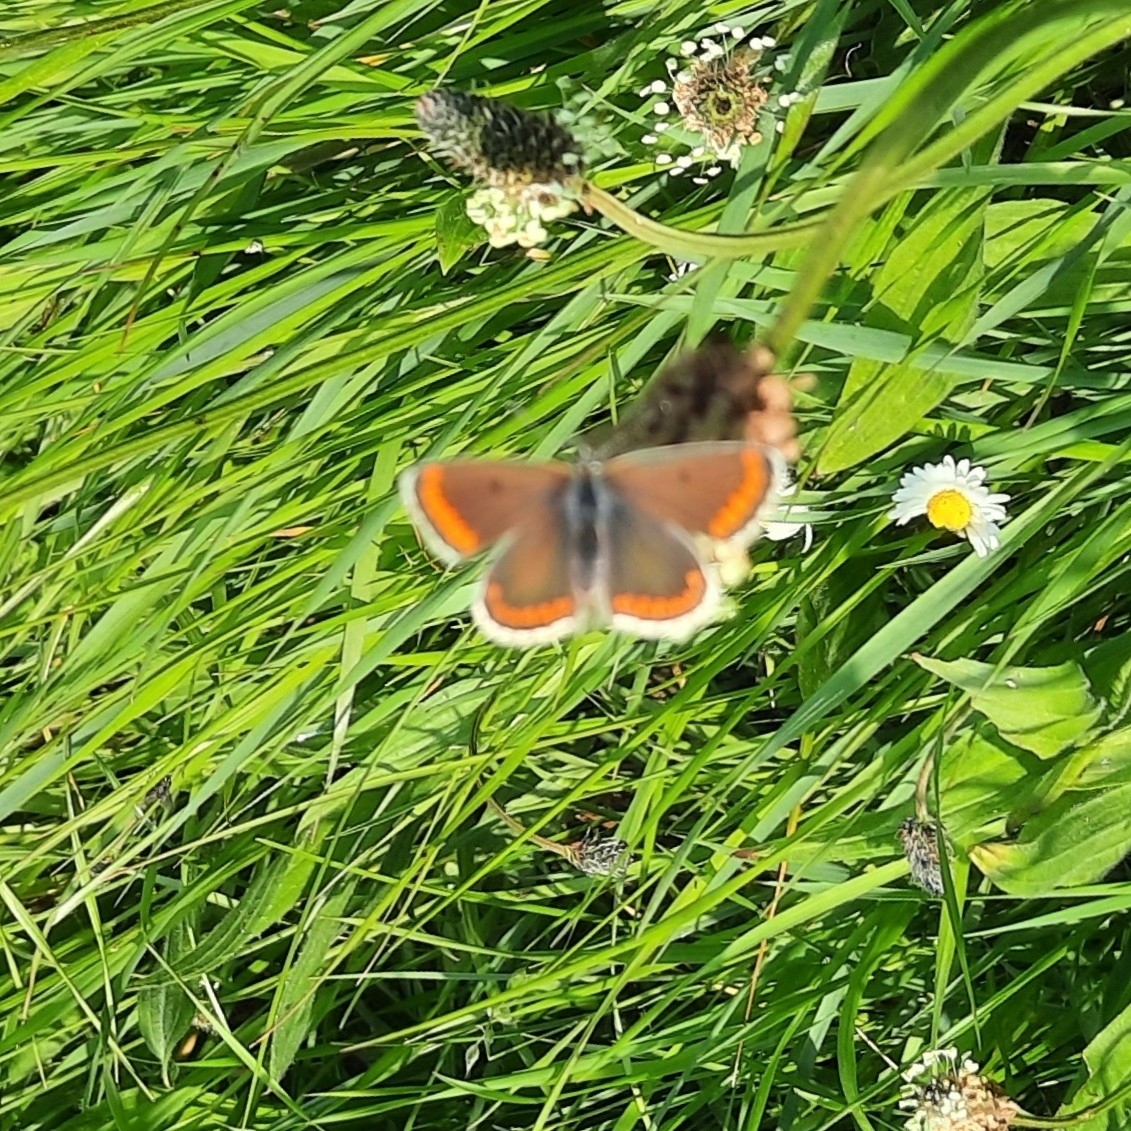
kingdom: Animalia
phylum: Arthropoda
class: Insecta
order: Lepidoptera
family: Lycaenidae
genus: Aricia
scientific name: Aricia agestis
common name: Brown argus
